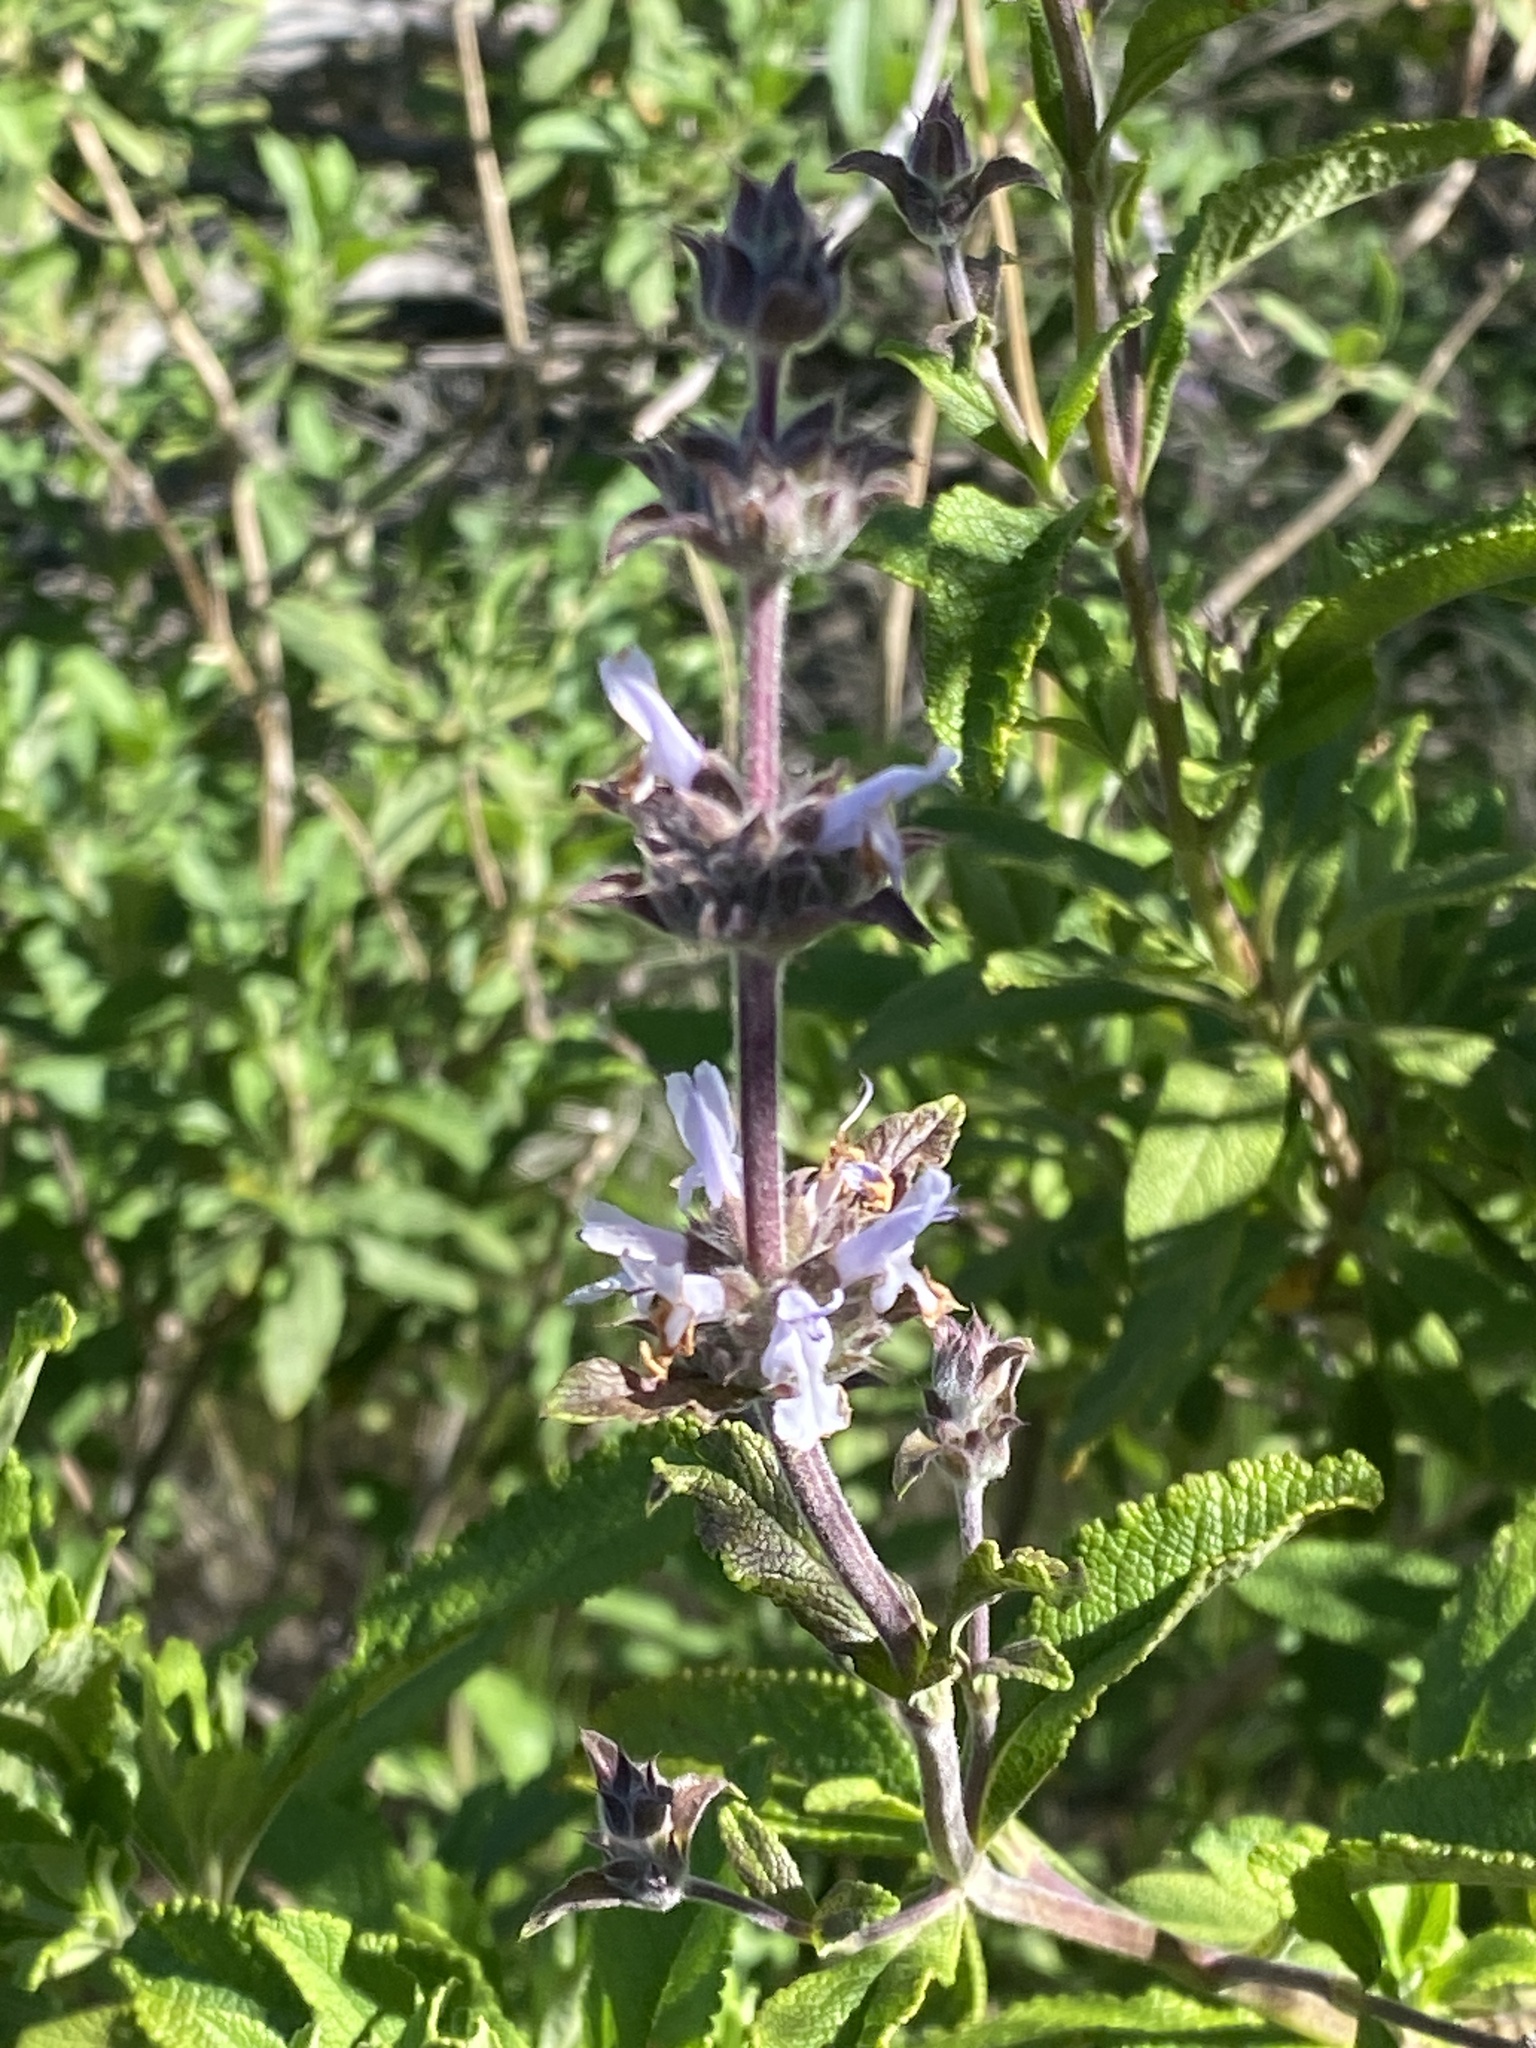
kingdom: Plantae
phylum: Tracheophyta
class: Magnoliopsida
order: Lamiales
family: Lamiaceae
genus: Salvia
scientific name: Salvia mellifera
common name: Black sage
